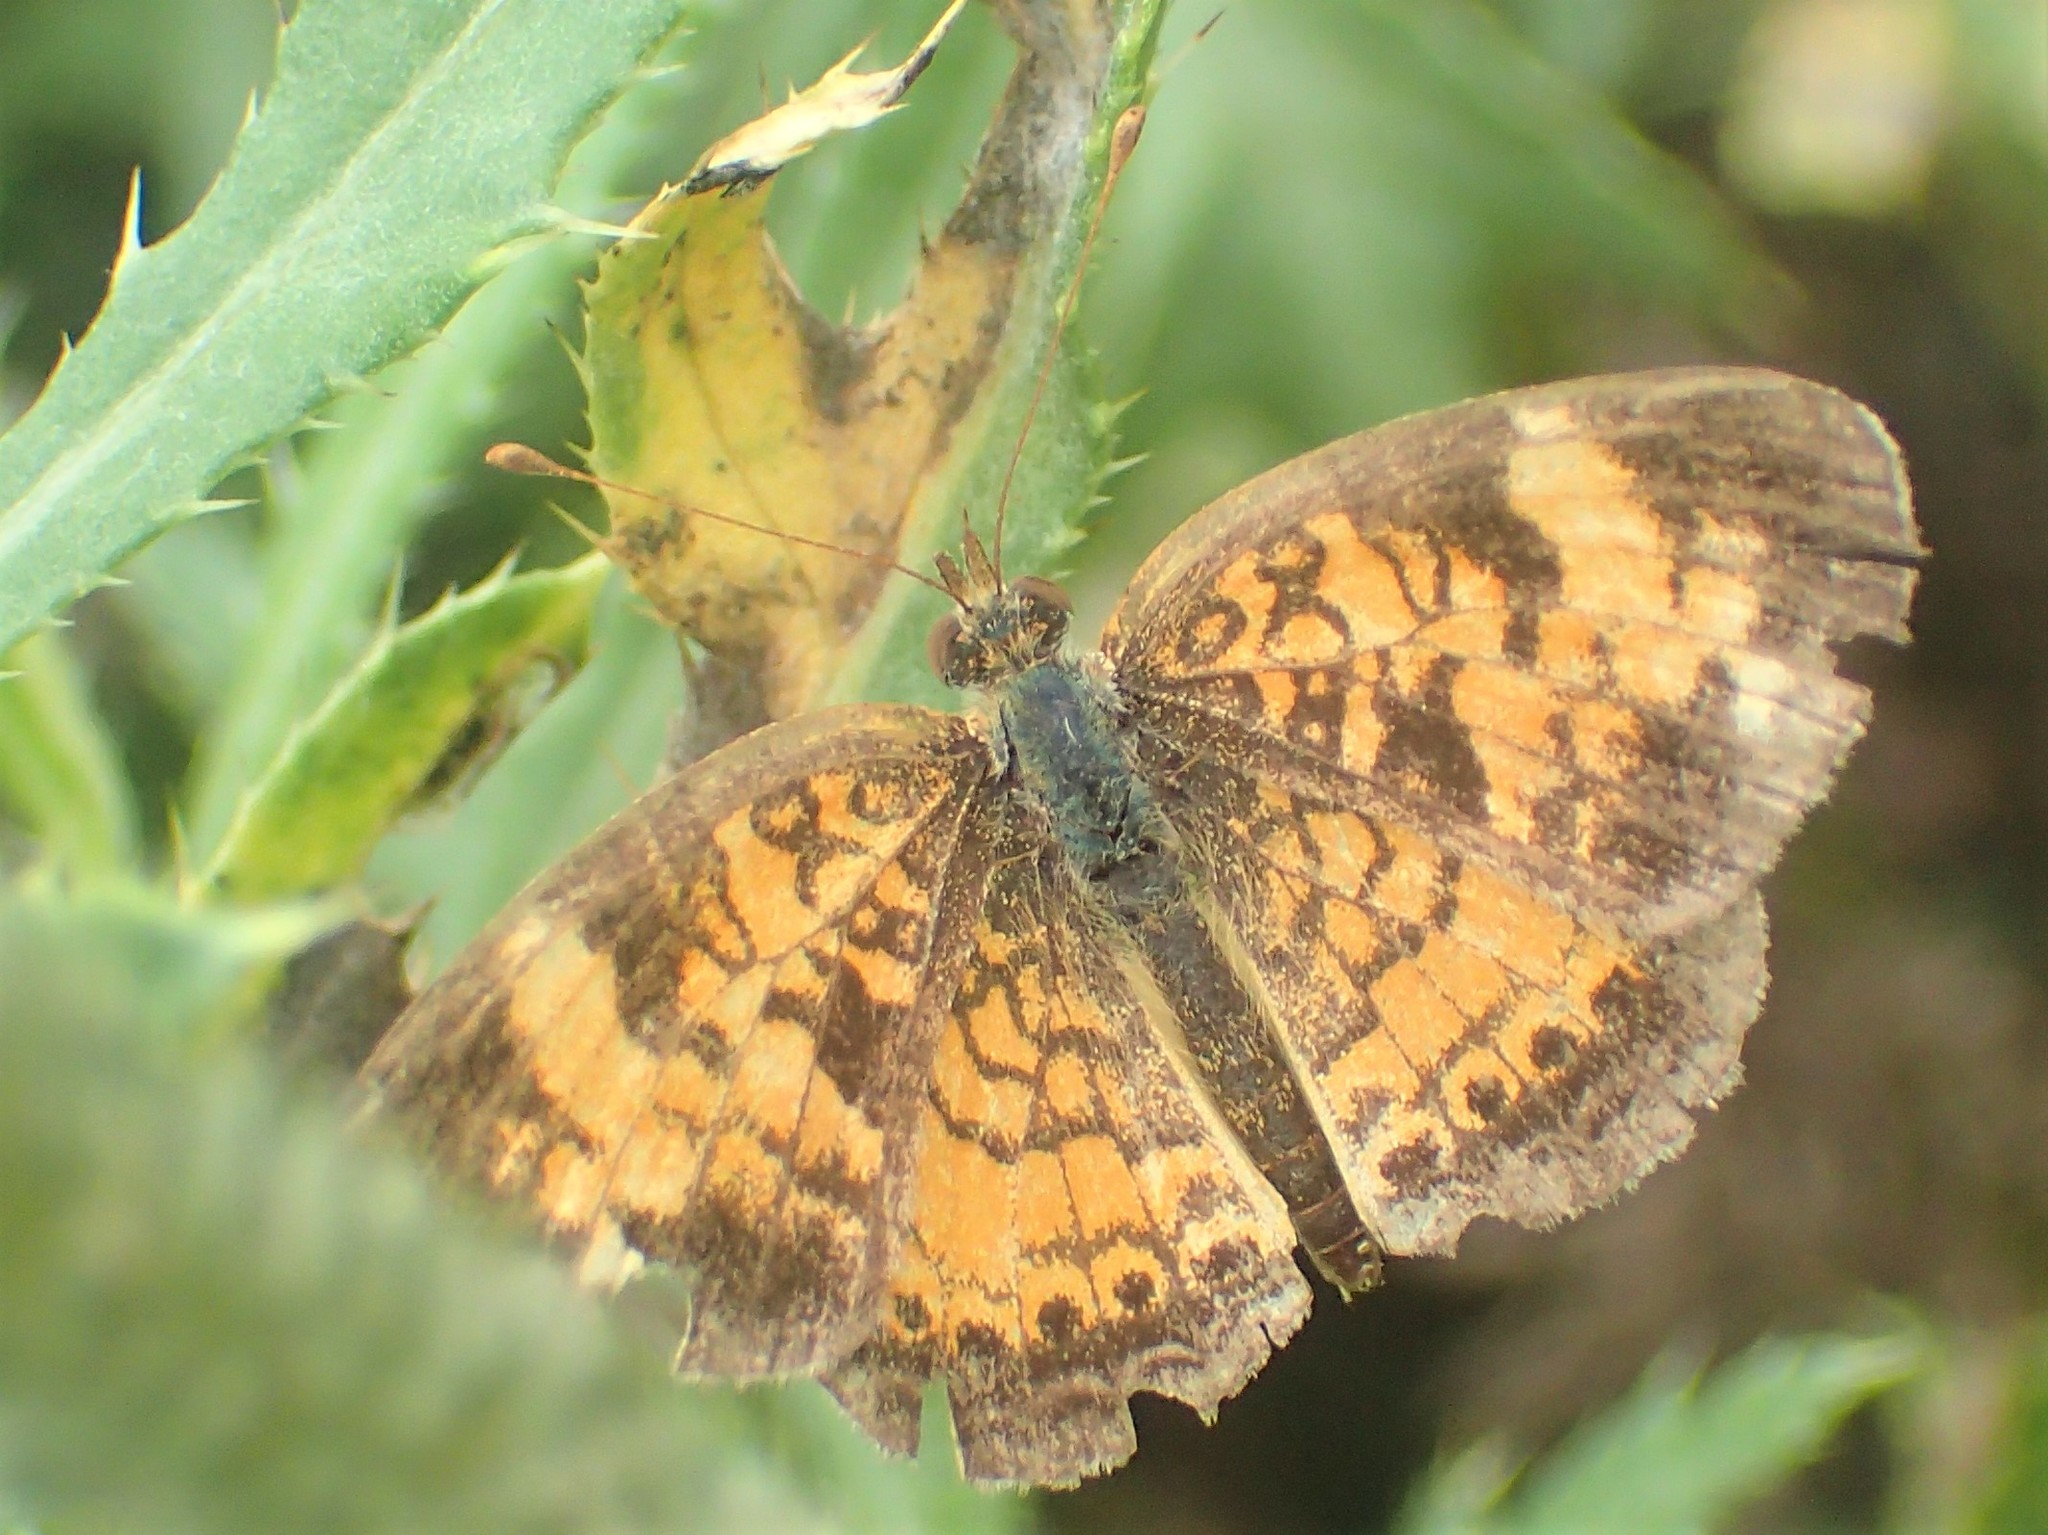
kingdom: Animalia
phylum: Arthropoda
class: Insecta
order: Lepidoptera
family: Nymphalidae
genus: Phyciodes
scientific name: Phyciodes tharos
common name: Pearl crescent
